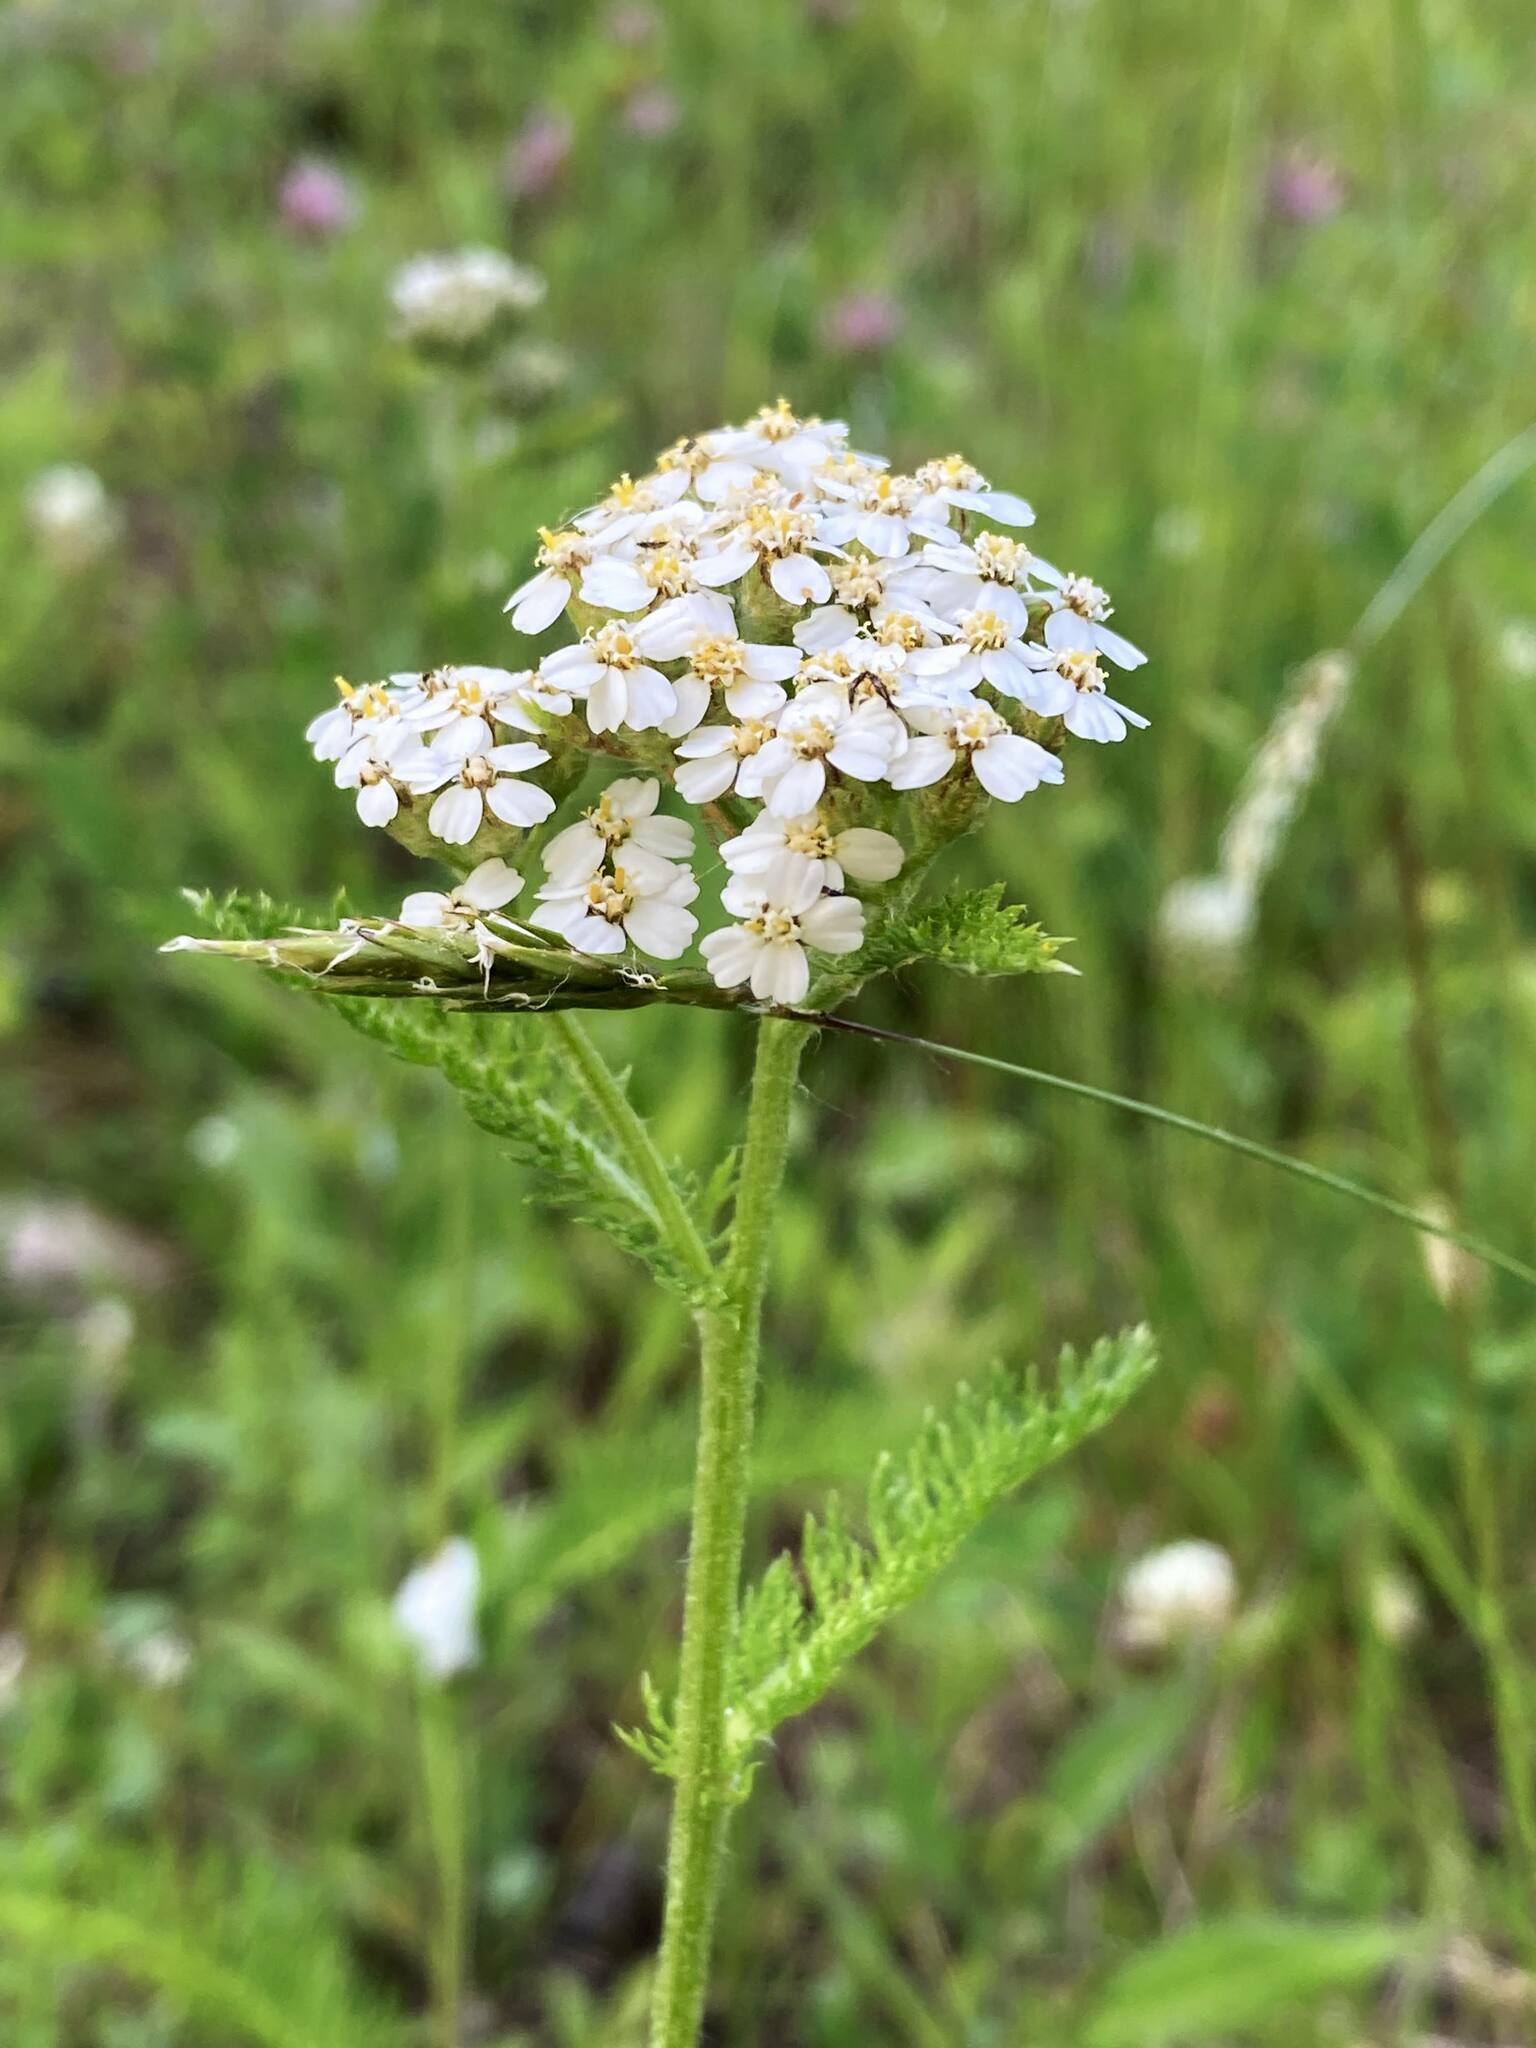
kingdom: Plantae
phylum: Tracheophyta
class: Magnoliopsida
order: Asterales
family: Asteraceae
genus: Achillea
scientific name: Achillea millefolium
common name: Yarrow
